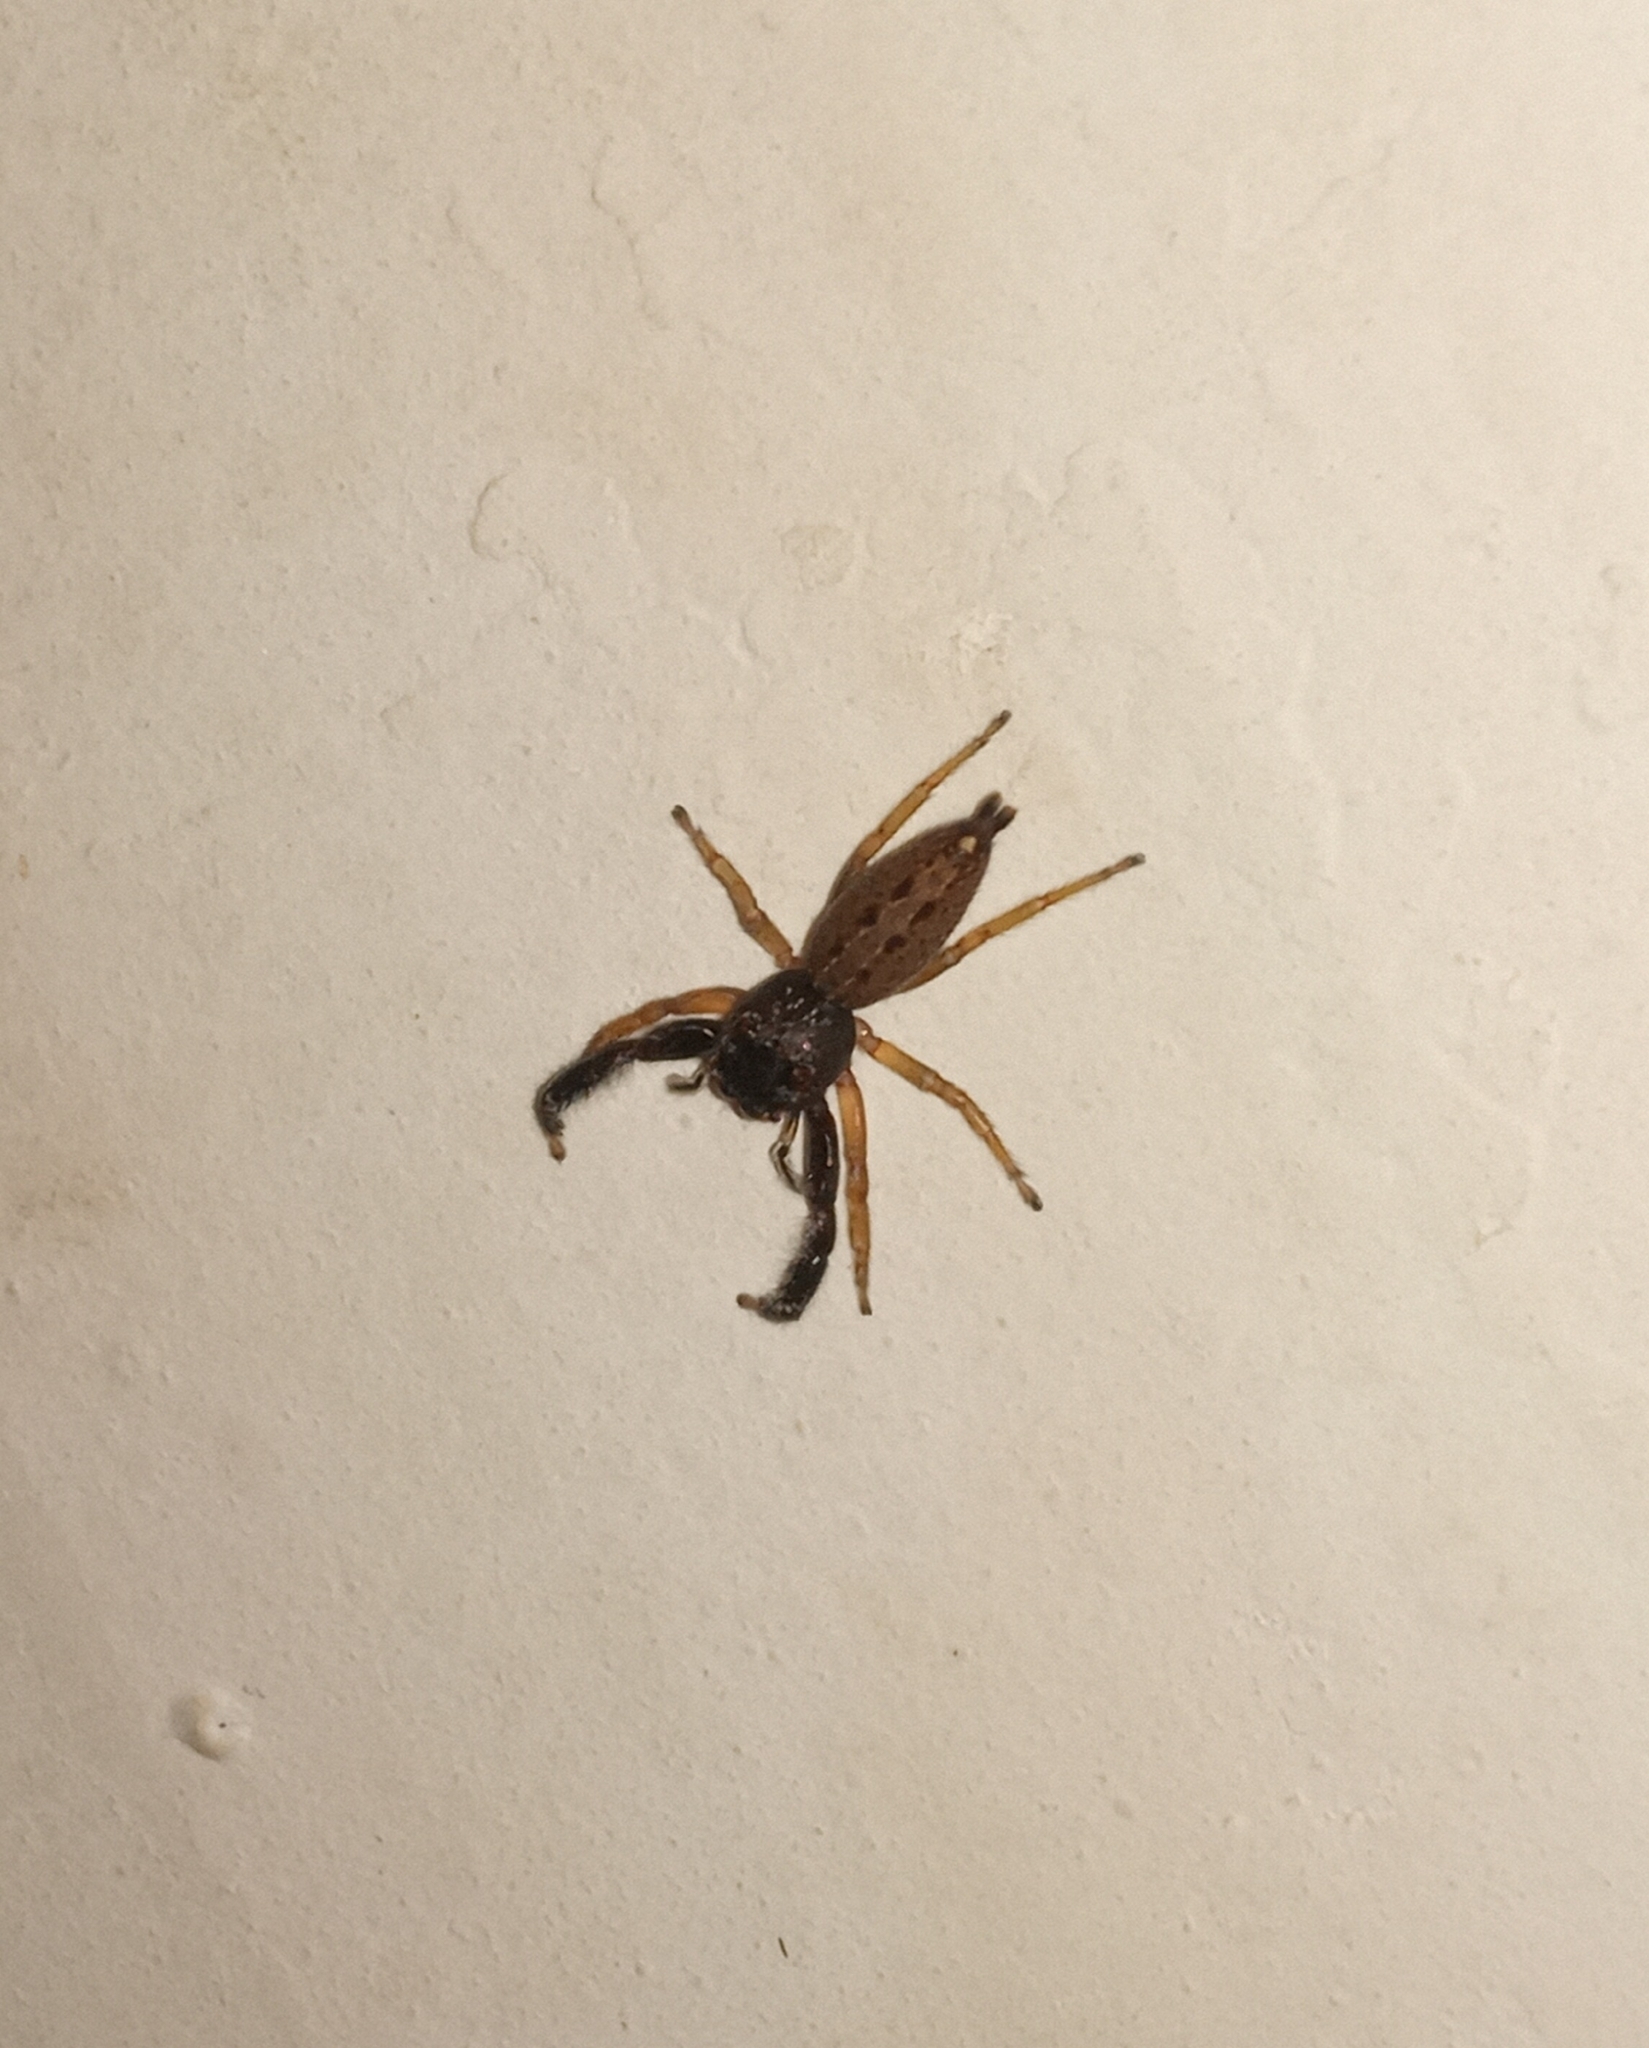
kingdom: Animalia
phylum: Arthropoda
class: Arachnida
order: Araneae
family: Salticidae
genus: Bavia
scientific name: Bavia sexpunctata
